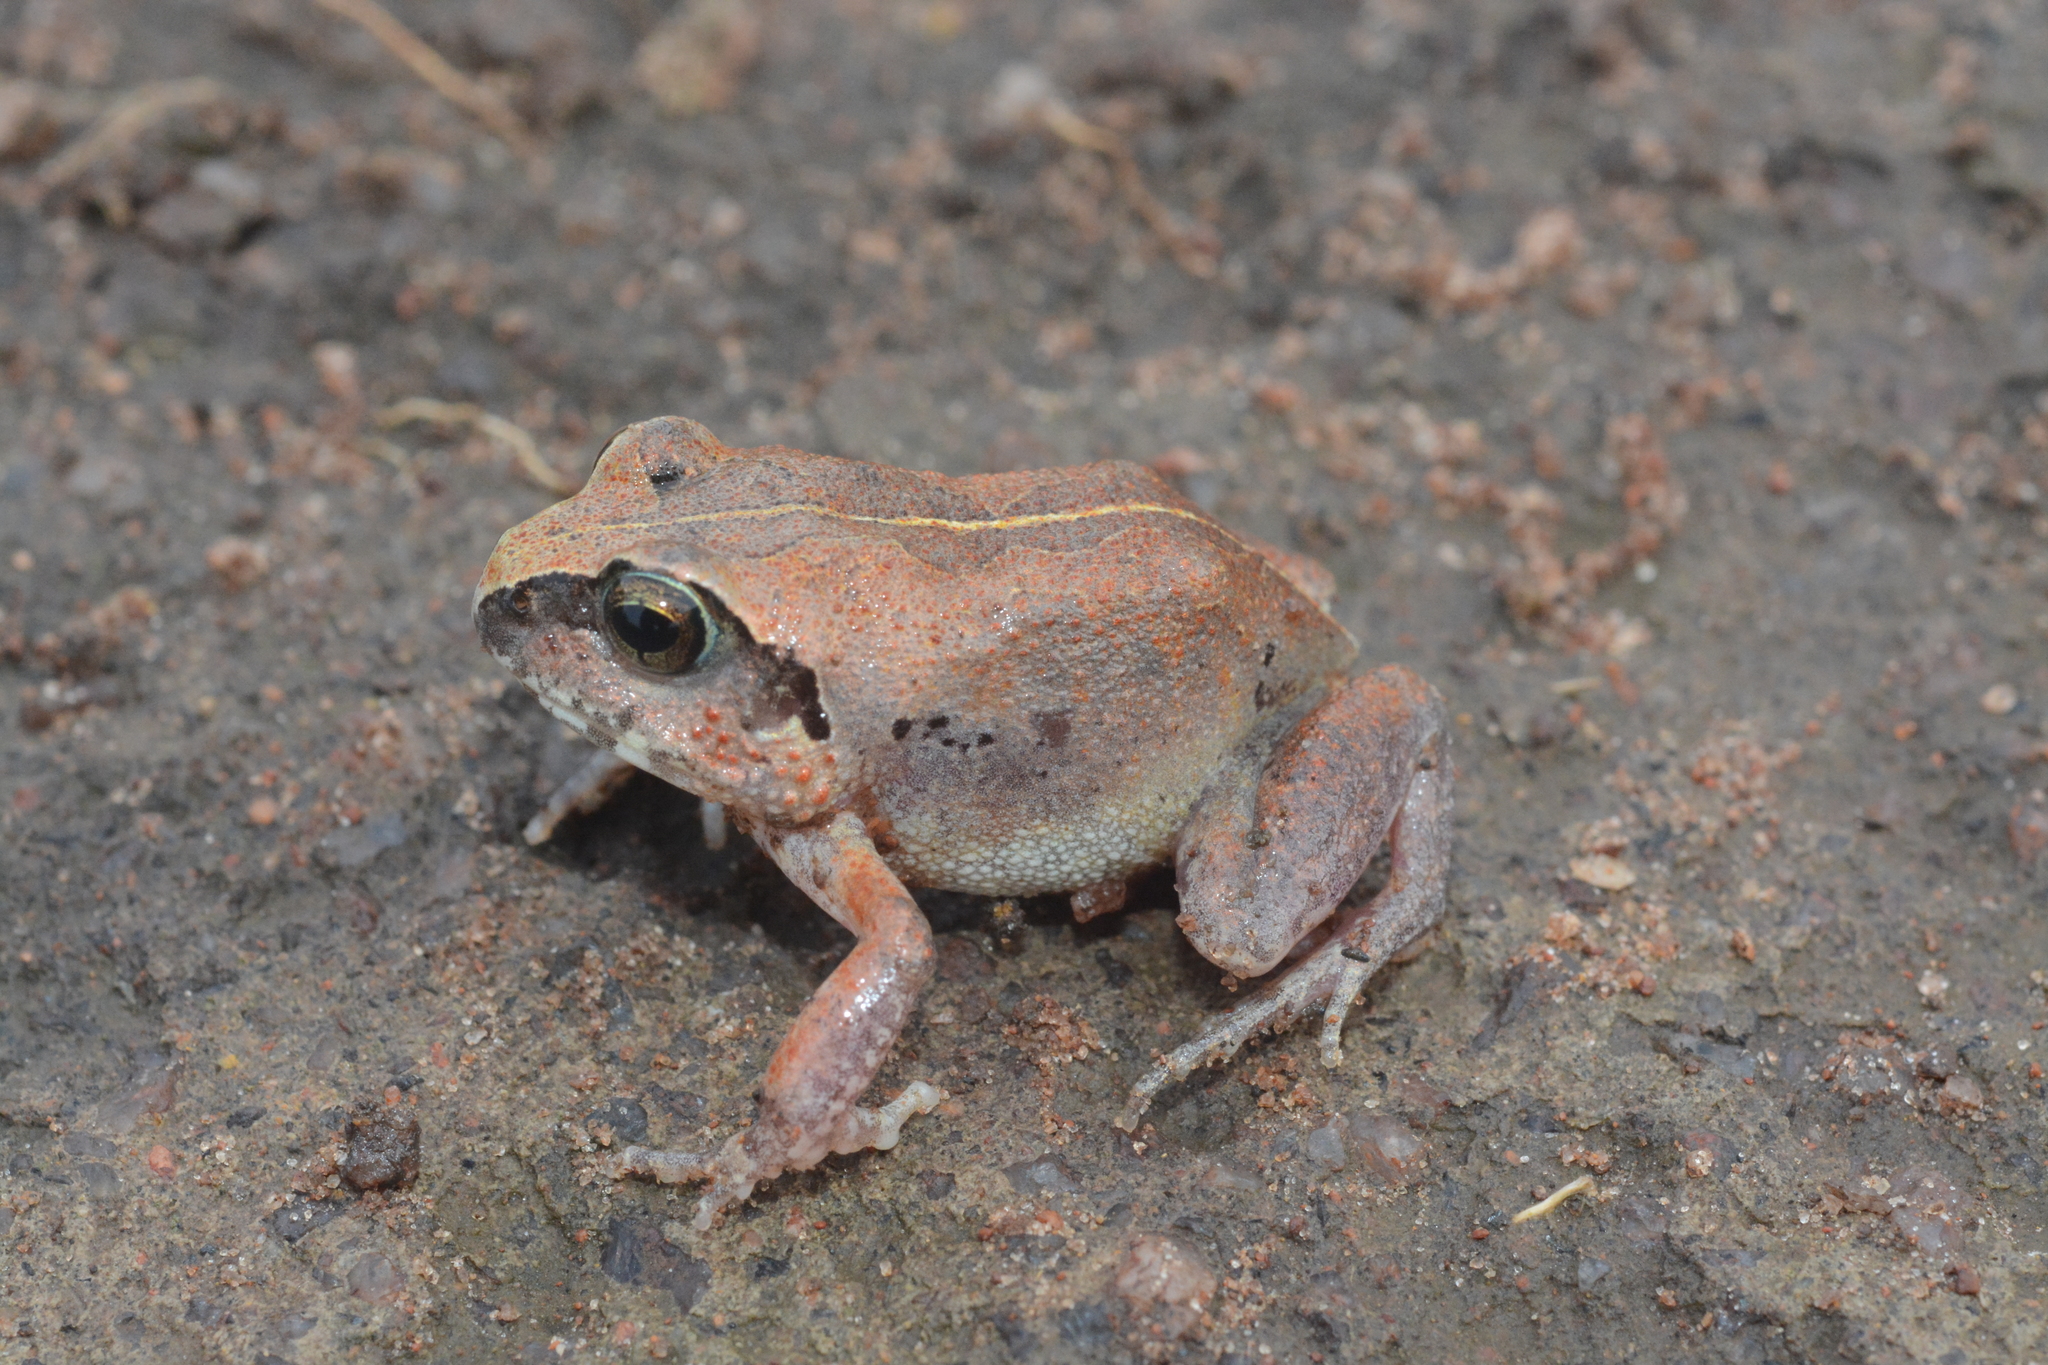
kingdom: Animalia
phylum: Chordata
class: Amphibia
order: Anura
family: Arthroleptidae
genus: Arthroleptis
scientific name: Arthroleptis stenodactylus
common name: Dune squeaker
